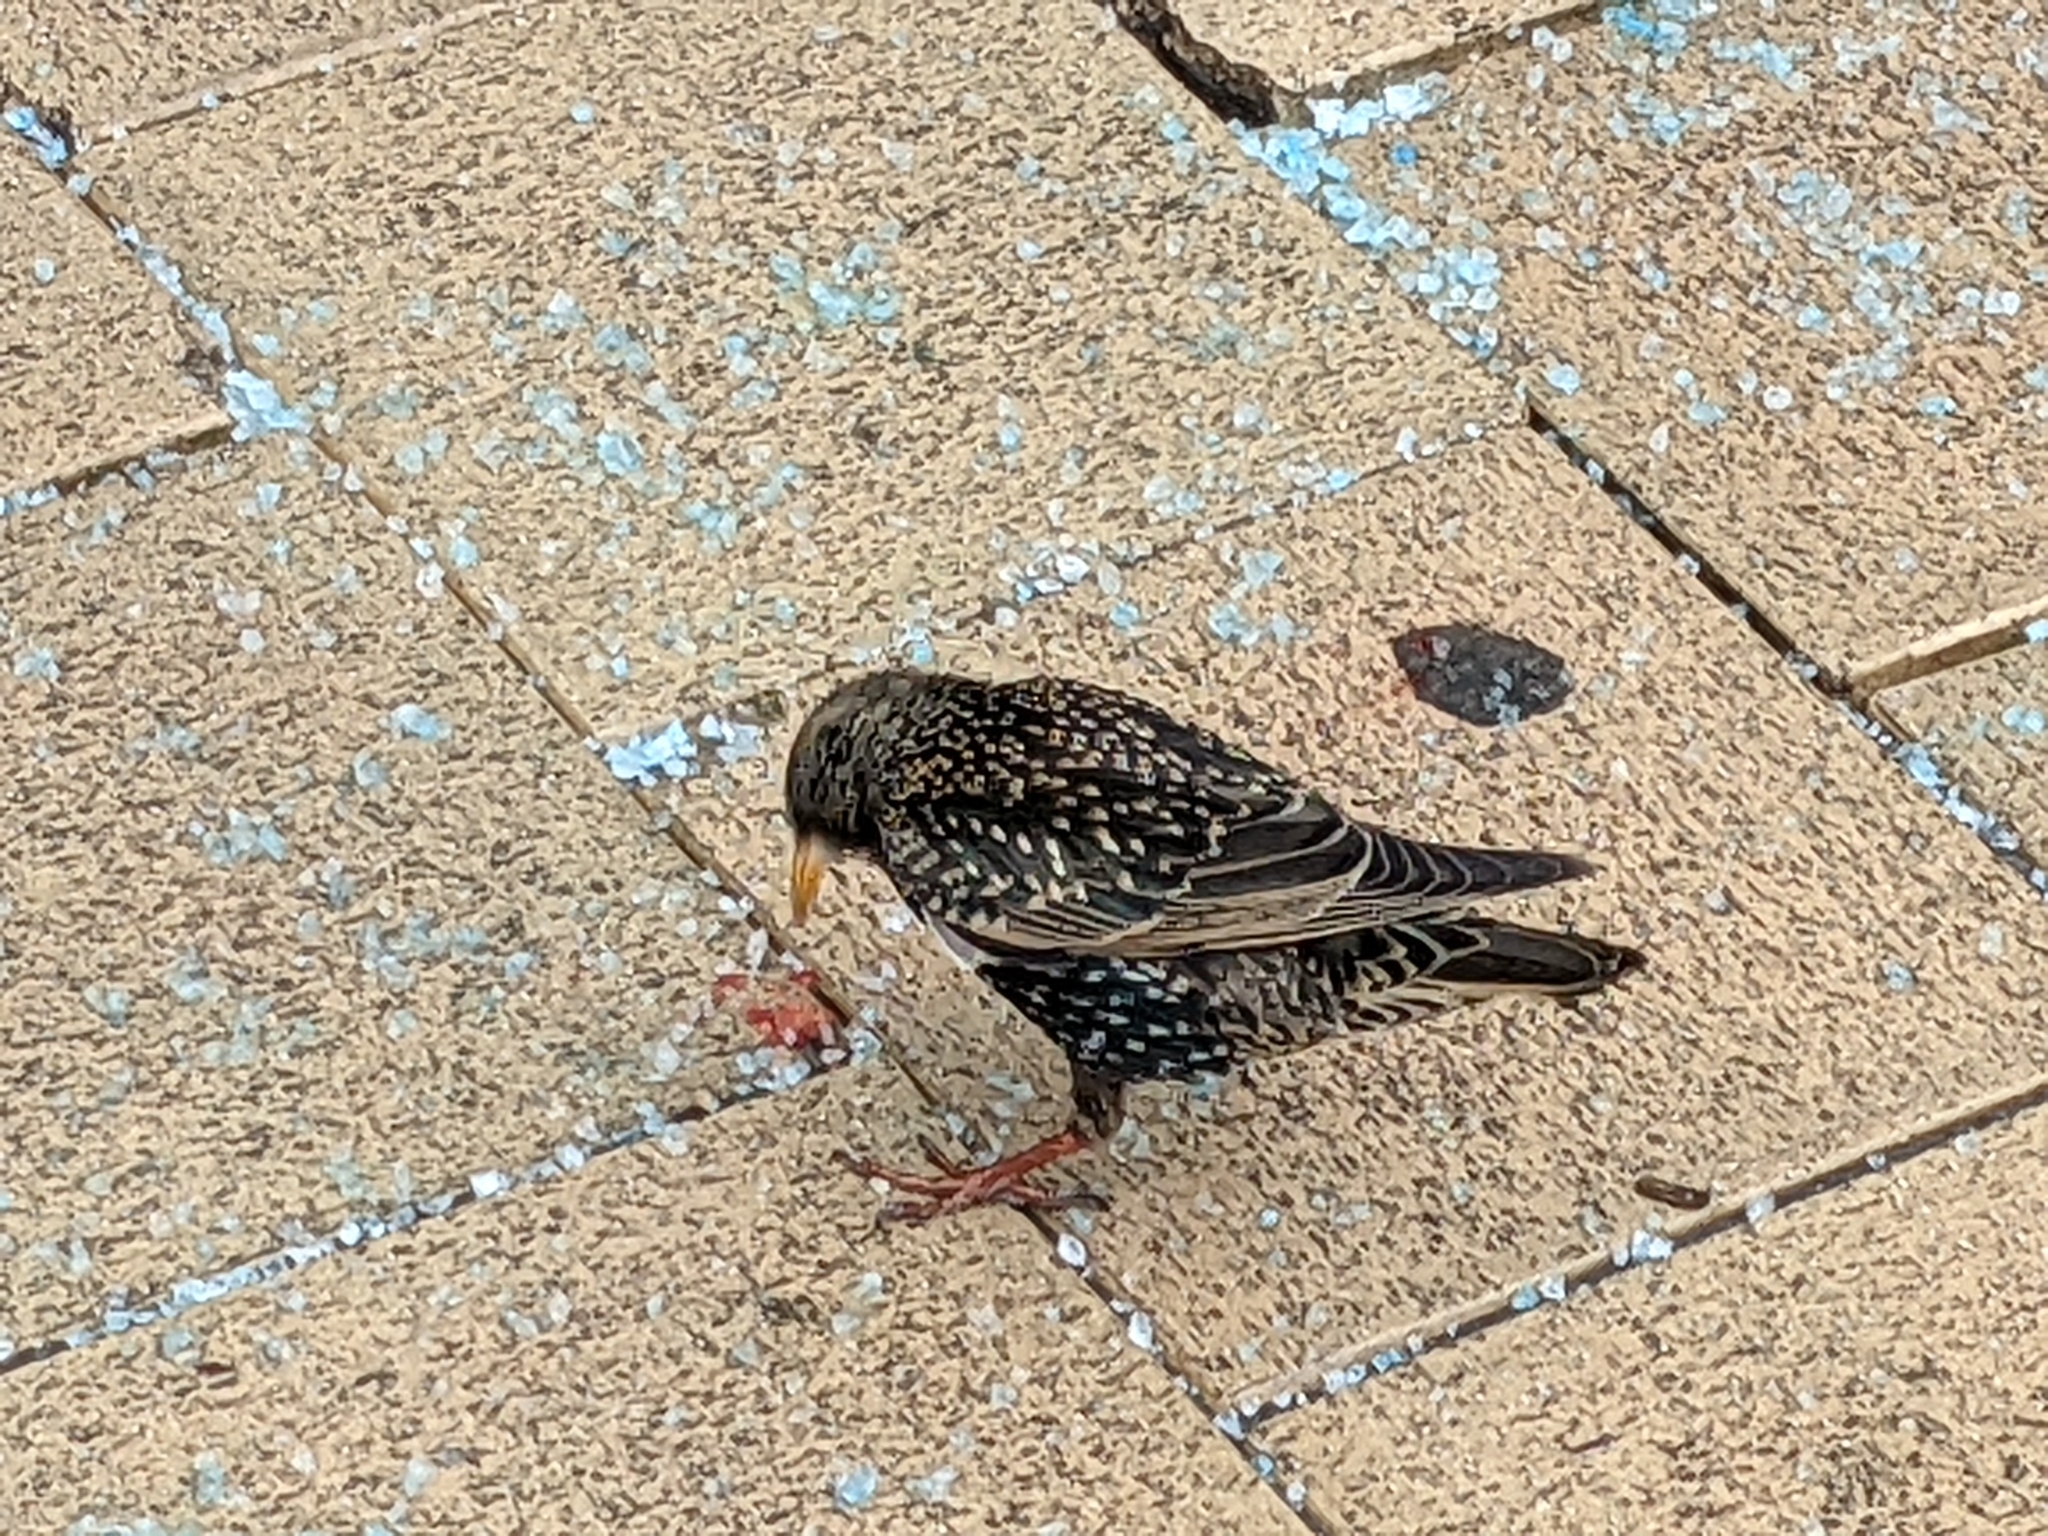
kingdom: Animalia
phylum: Chordata
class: Aves
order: Passeriformes
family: Sturnidae
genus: Sturnus
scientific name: Sturnus vulgaris
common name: Common starling
